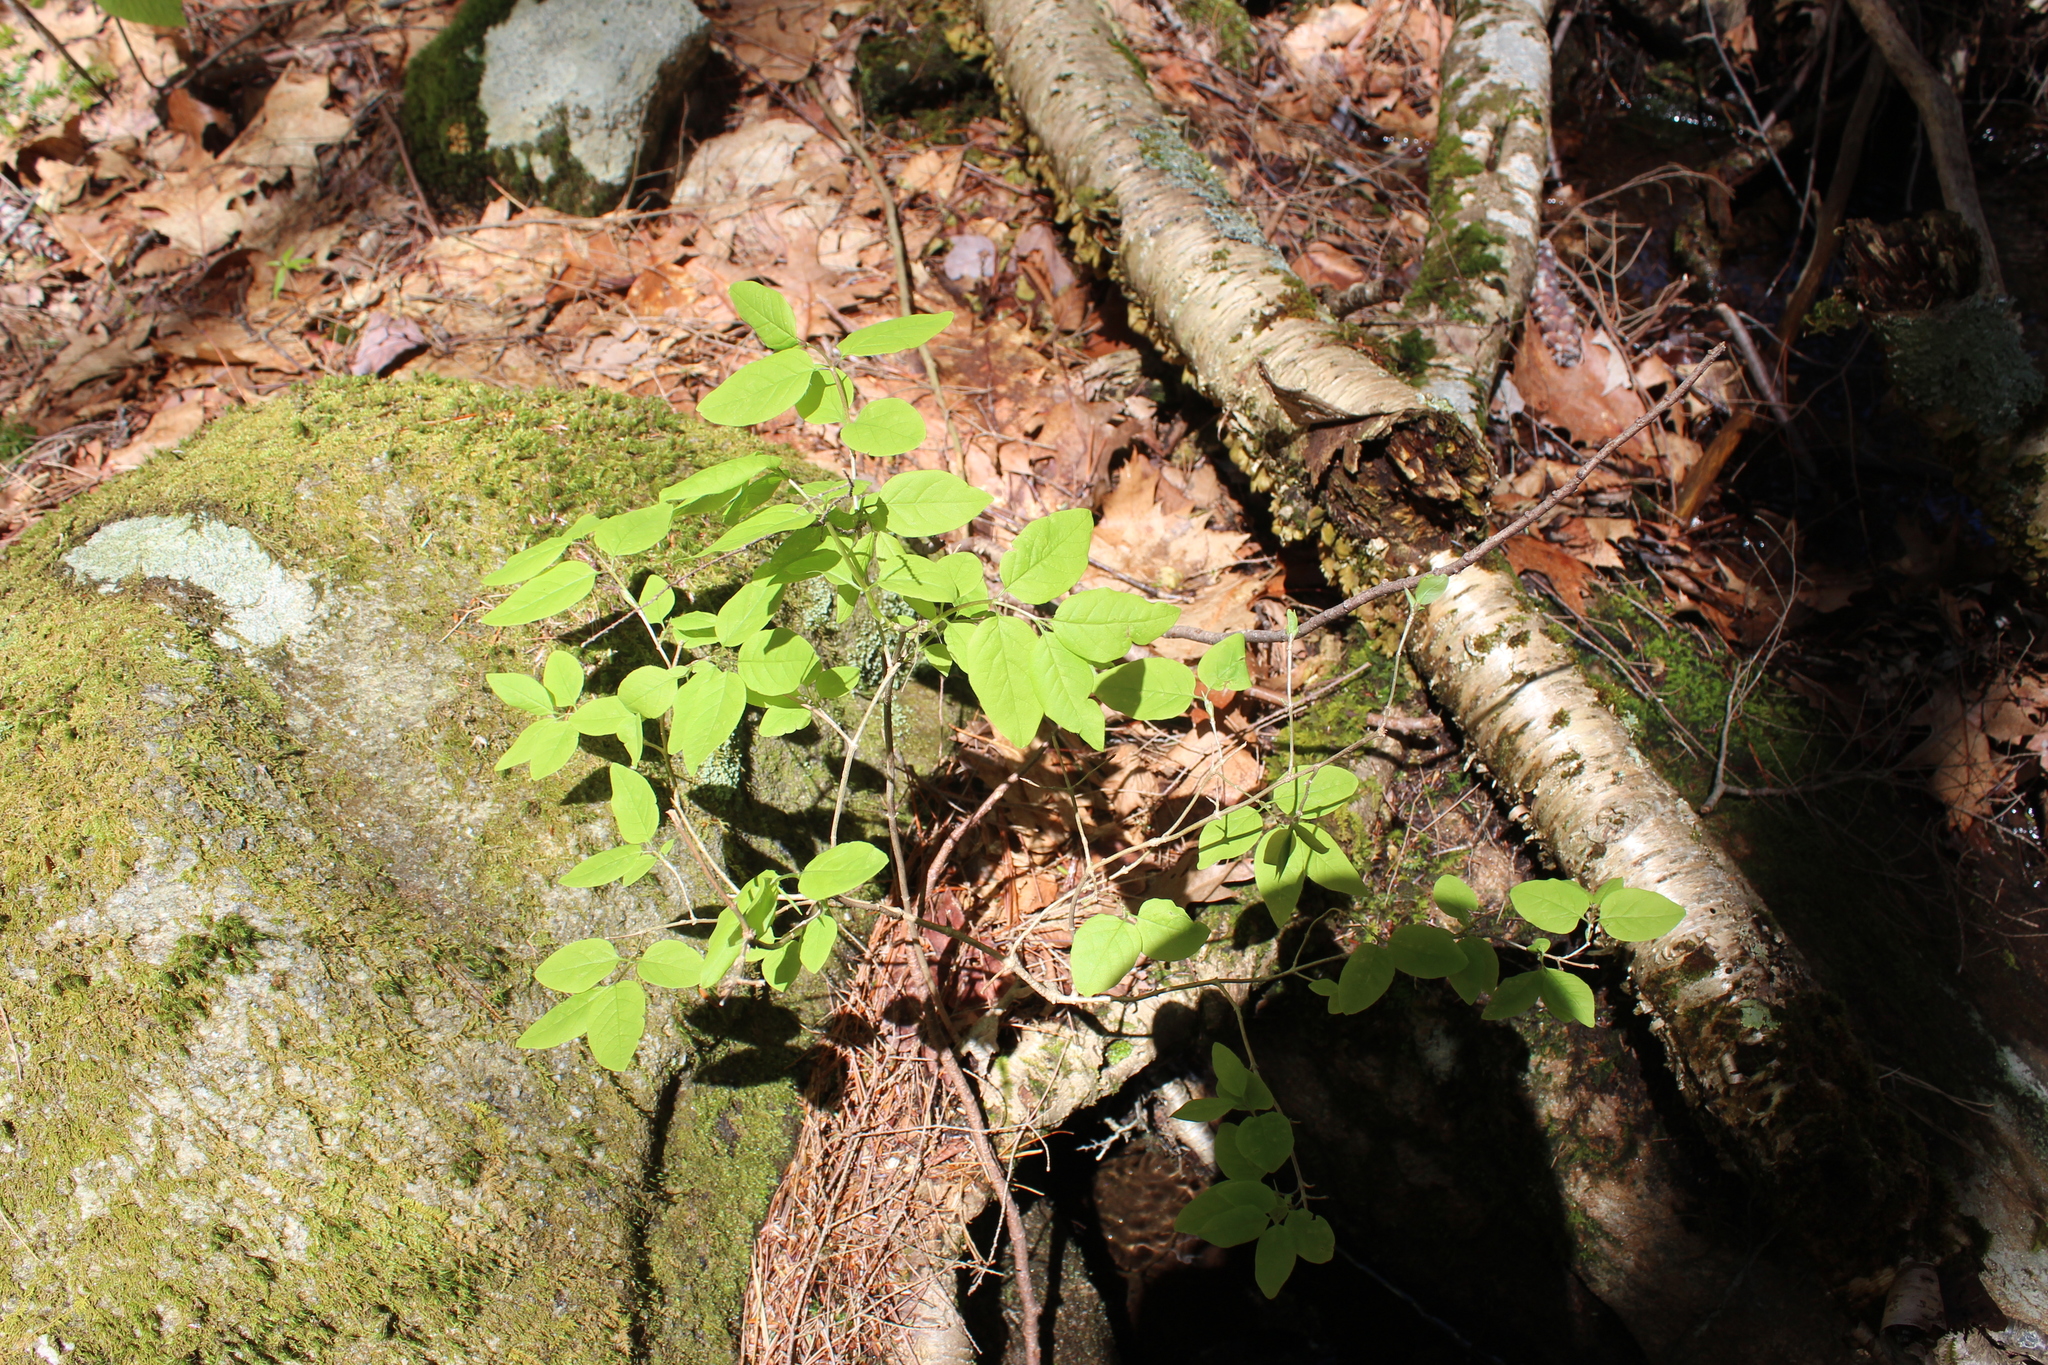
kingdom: Plantae
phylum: Tracheophyta
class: Magnoliopsida
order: Dipsacales
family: Caprifoliaceae
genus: Lonicera
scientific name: Lonicera canadensis
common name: American fly-honeysuckle
